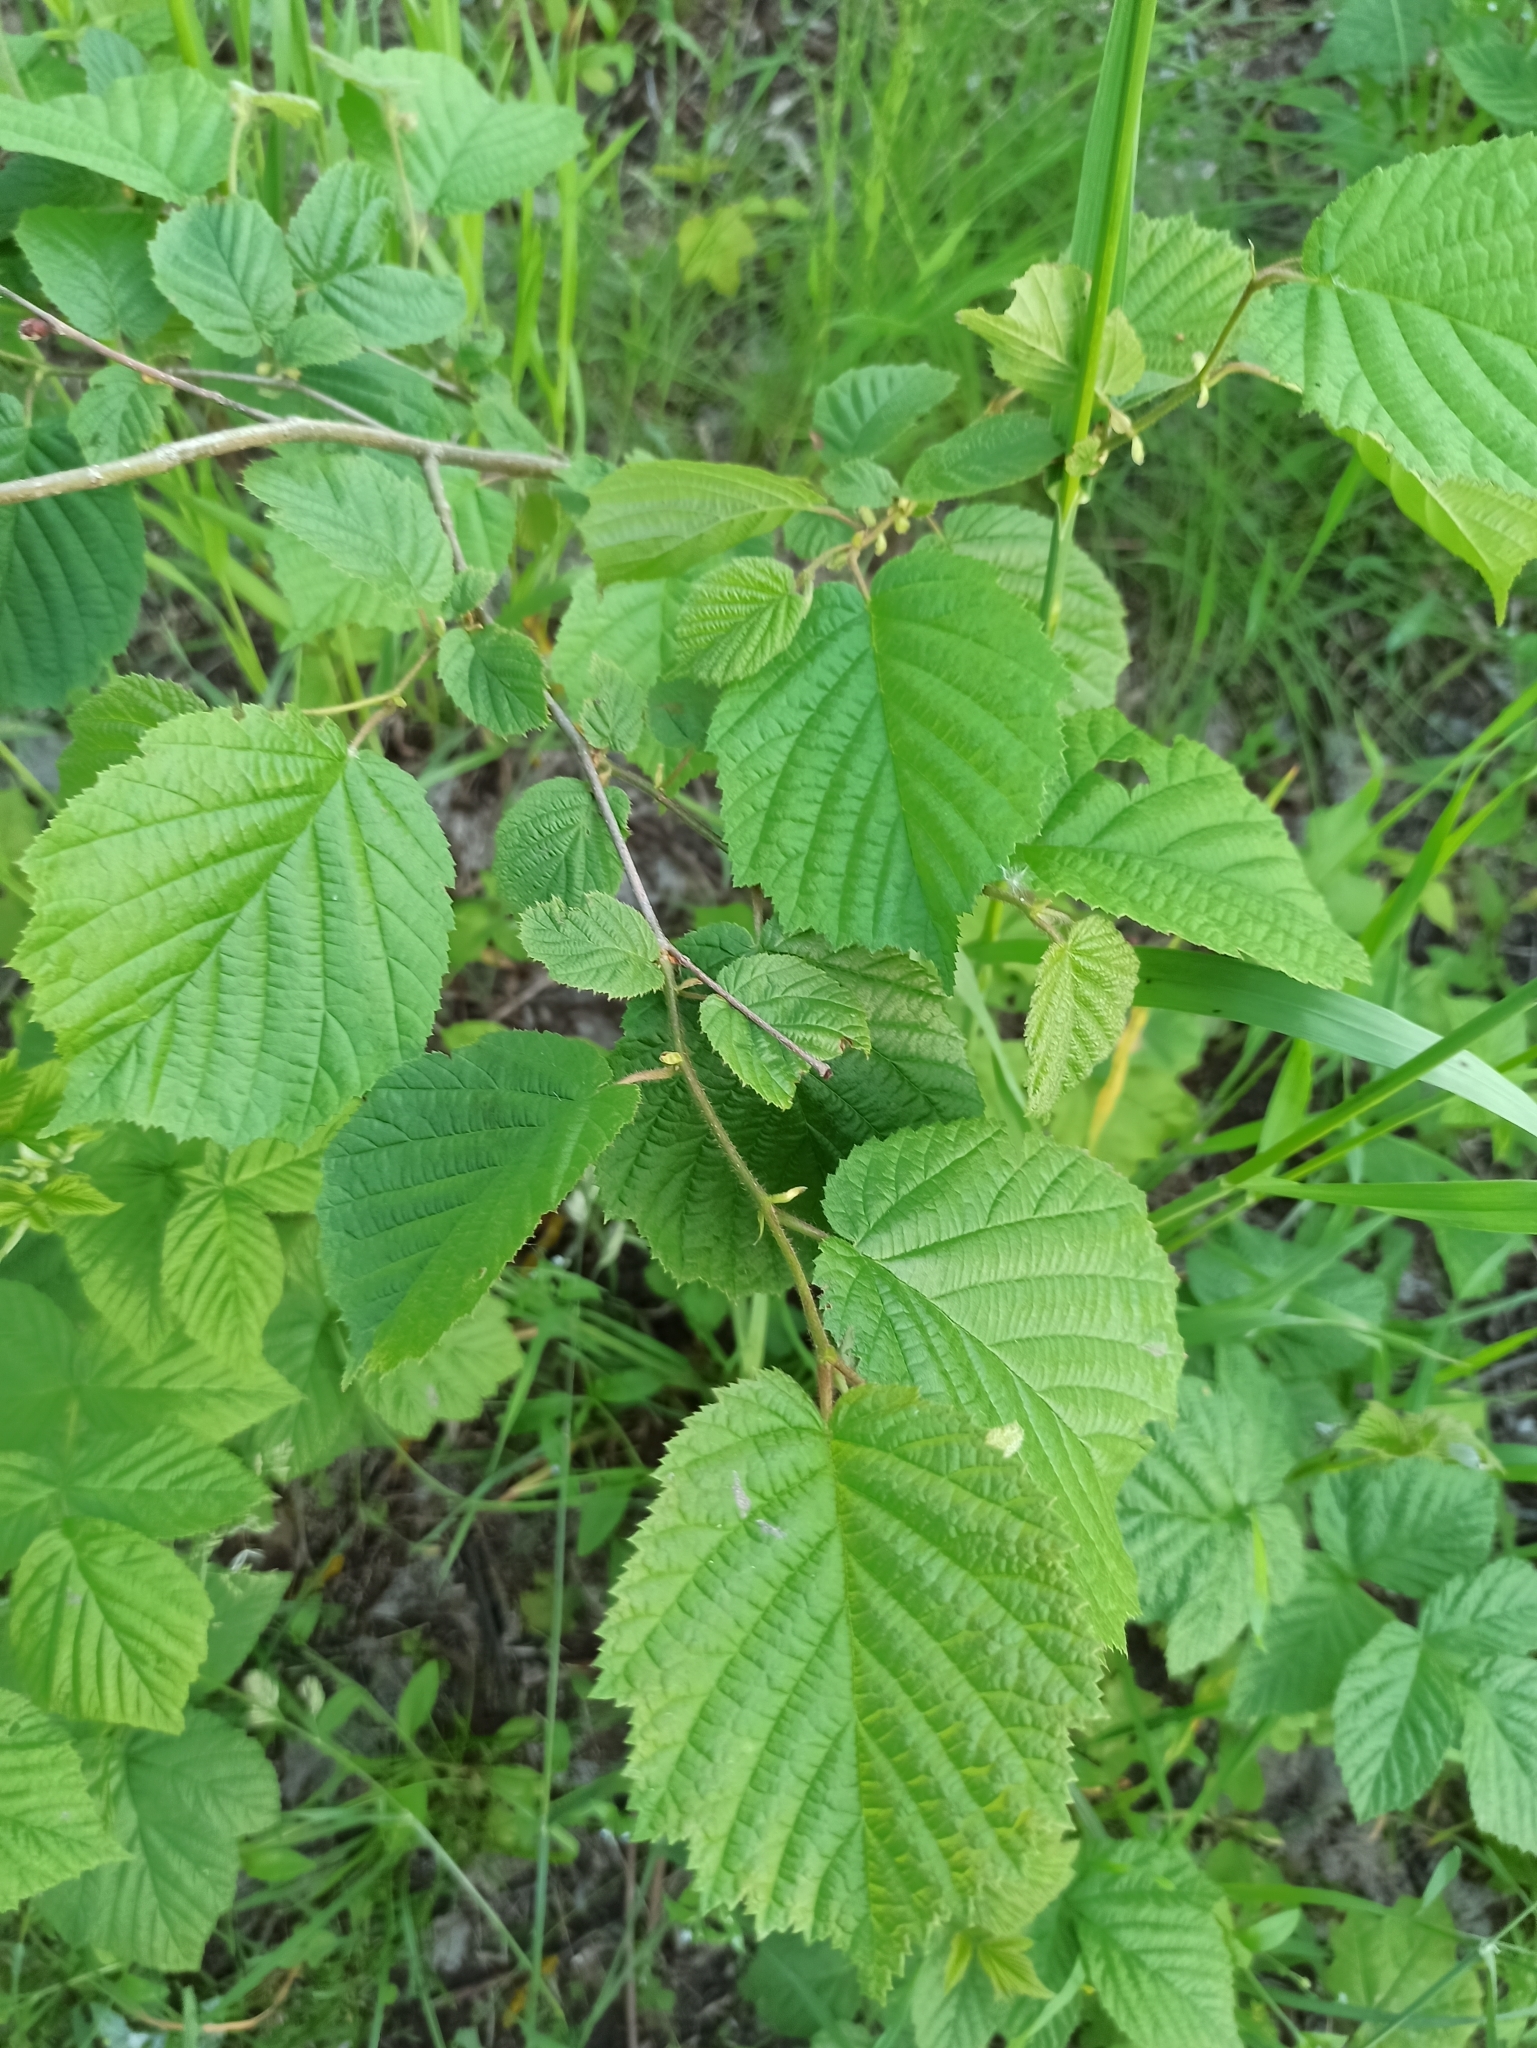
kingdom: Plantae
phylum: Tracheophyta
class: Magnoliopsida
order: Fagales
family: Betulaceae
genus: Corylus
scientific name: Corylus avellana
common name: European hazel
